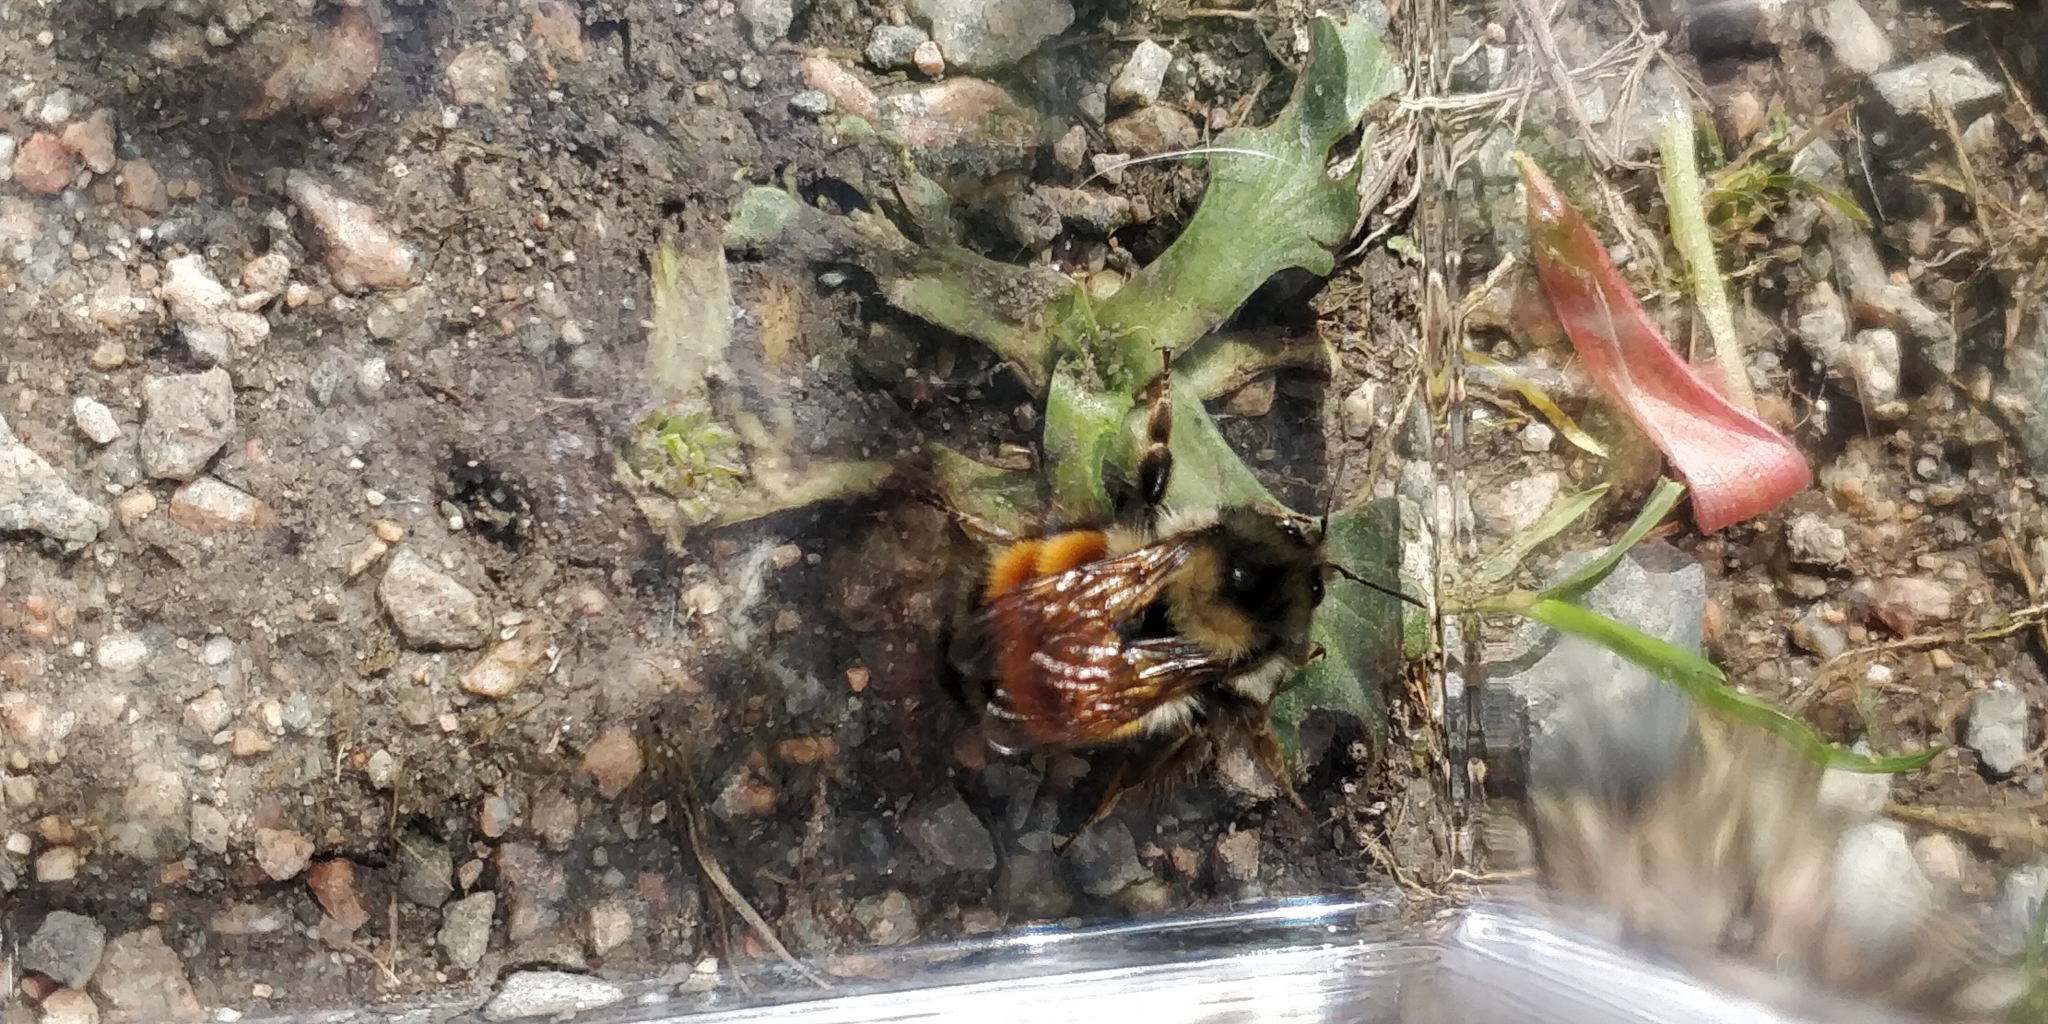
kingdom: Animalia
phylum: Arthropoda
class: Insecta
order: Hymenoptera
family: Apidae
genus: Bombus
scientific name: Bombus melanopygus
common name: Black tail bumble bee
